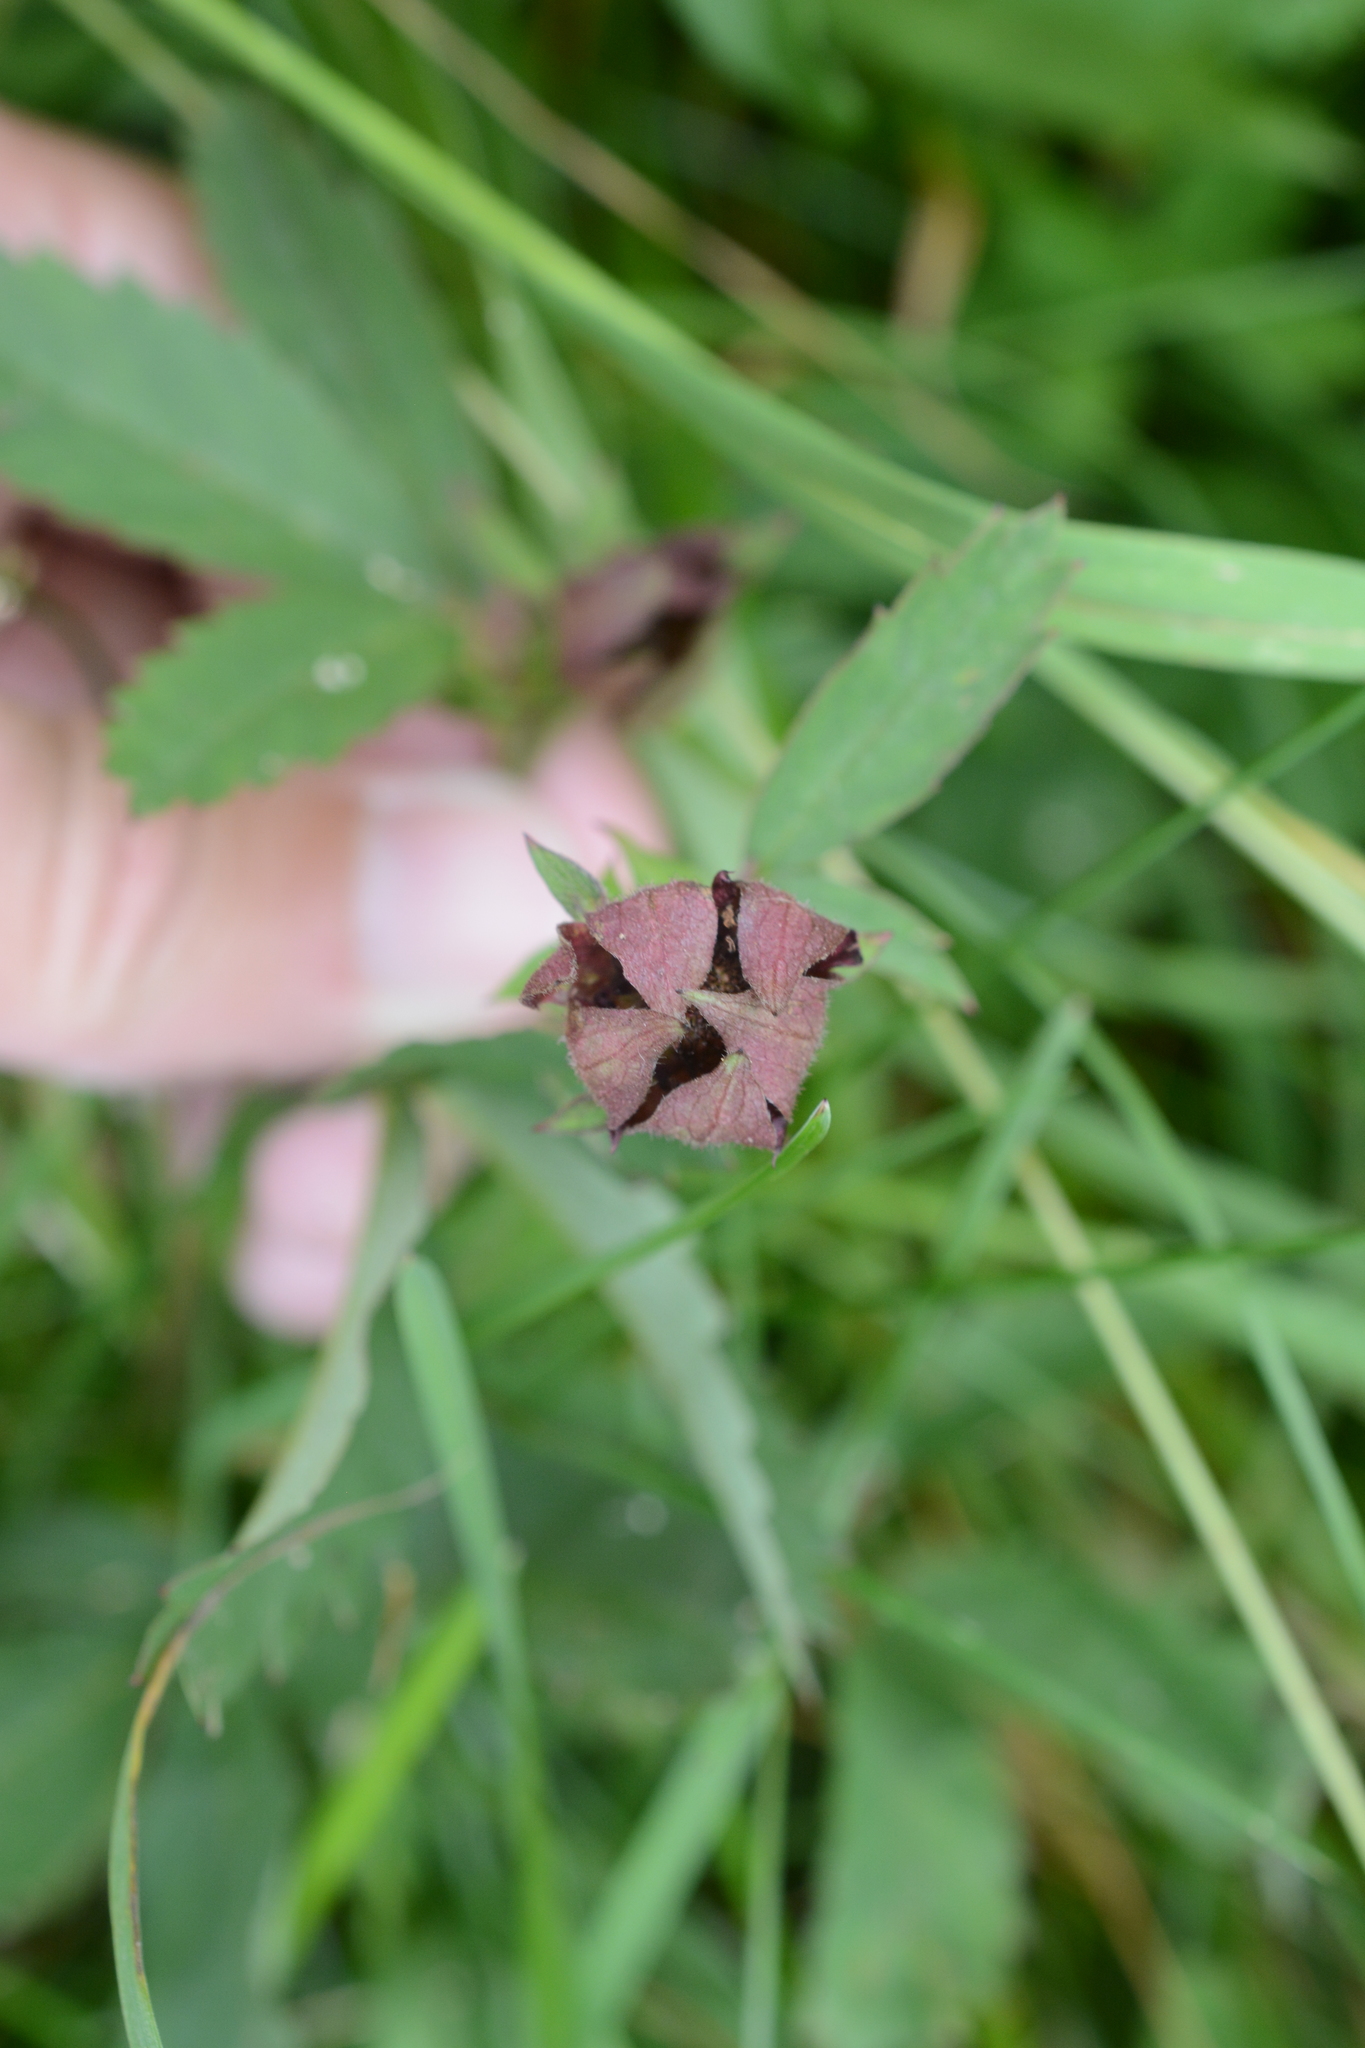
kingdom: Plantae
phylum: Tracheophyta
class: Magnoliopsida
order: Rosales
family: Rosaceae
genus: Comarum
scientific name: Comarum palustre
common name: Marsh cinquefoil
